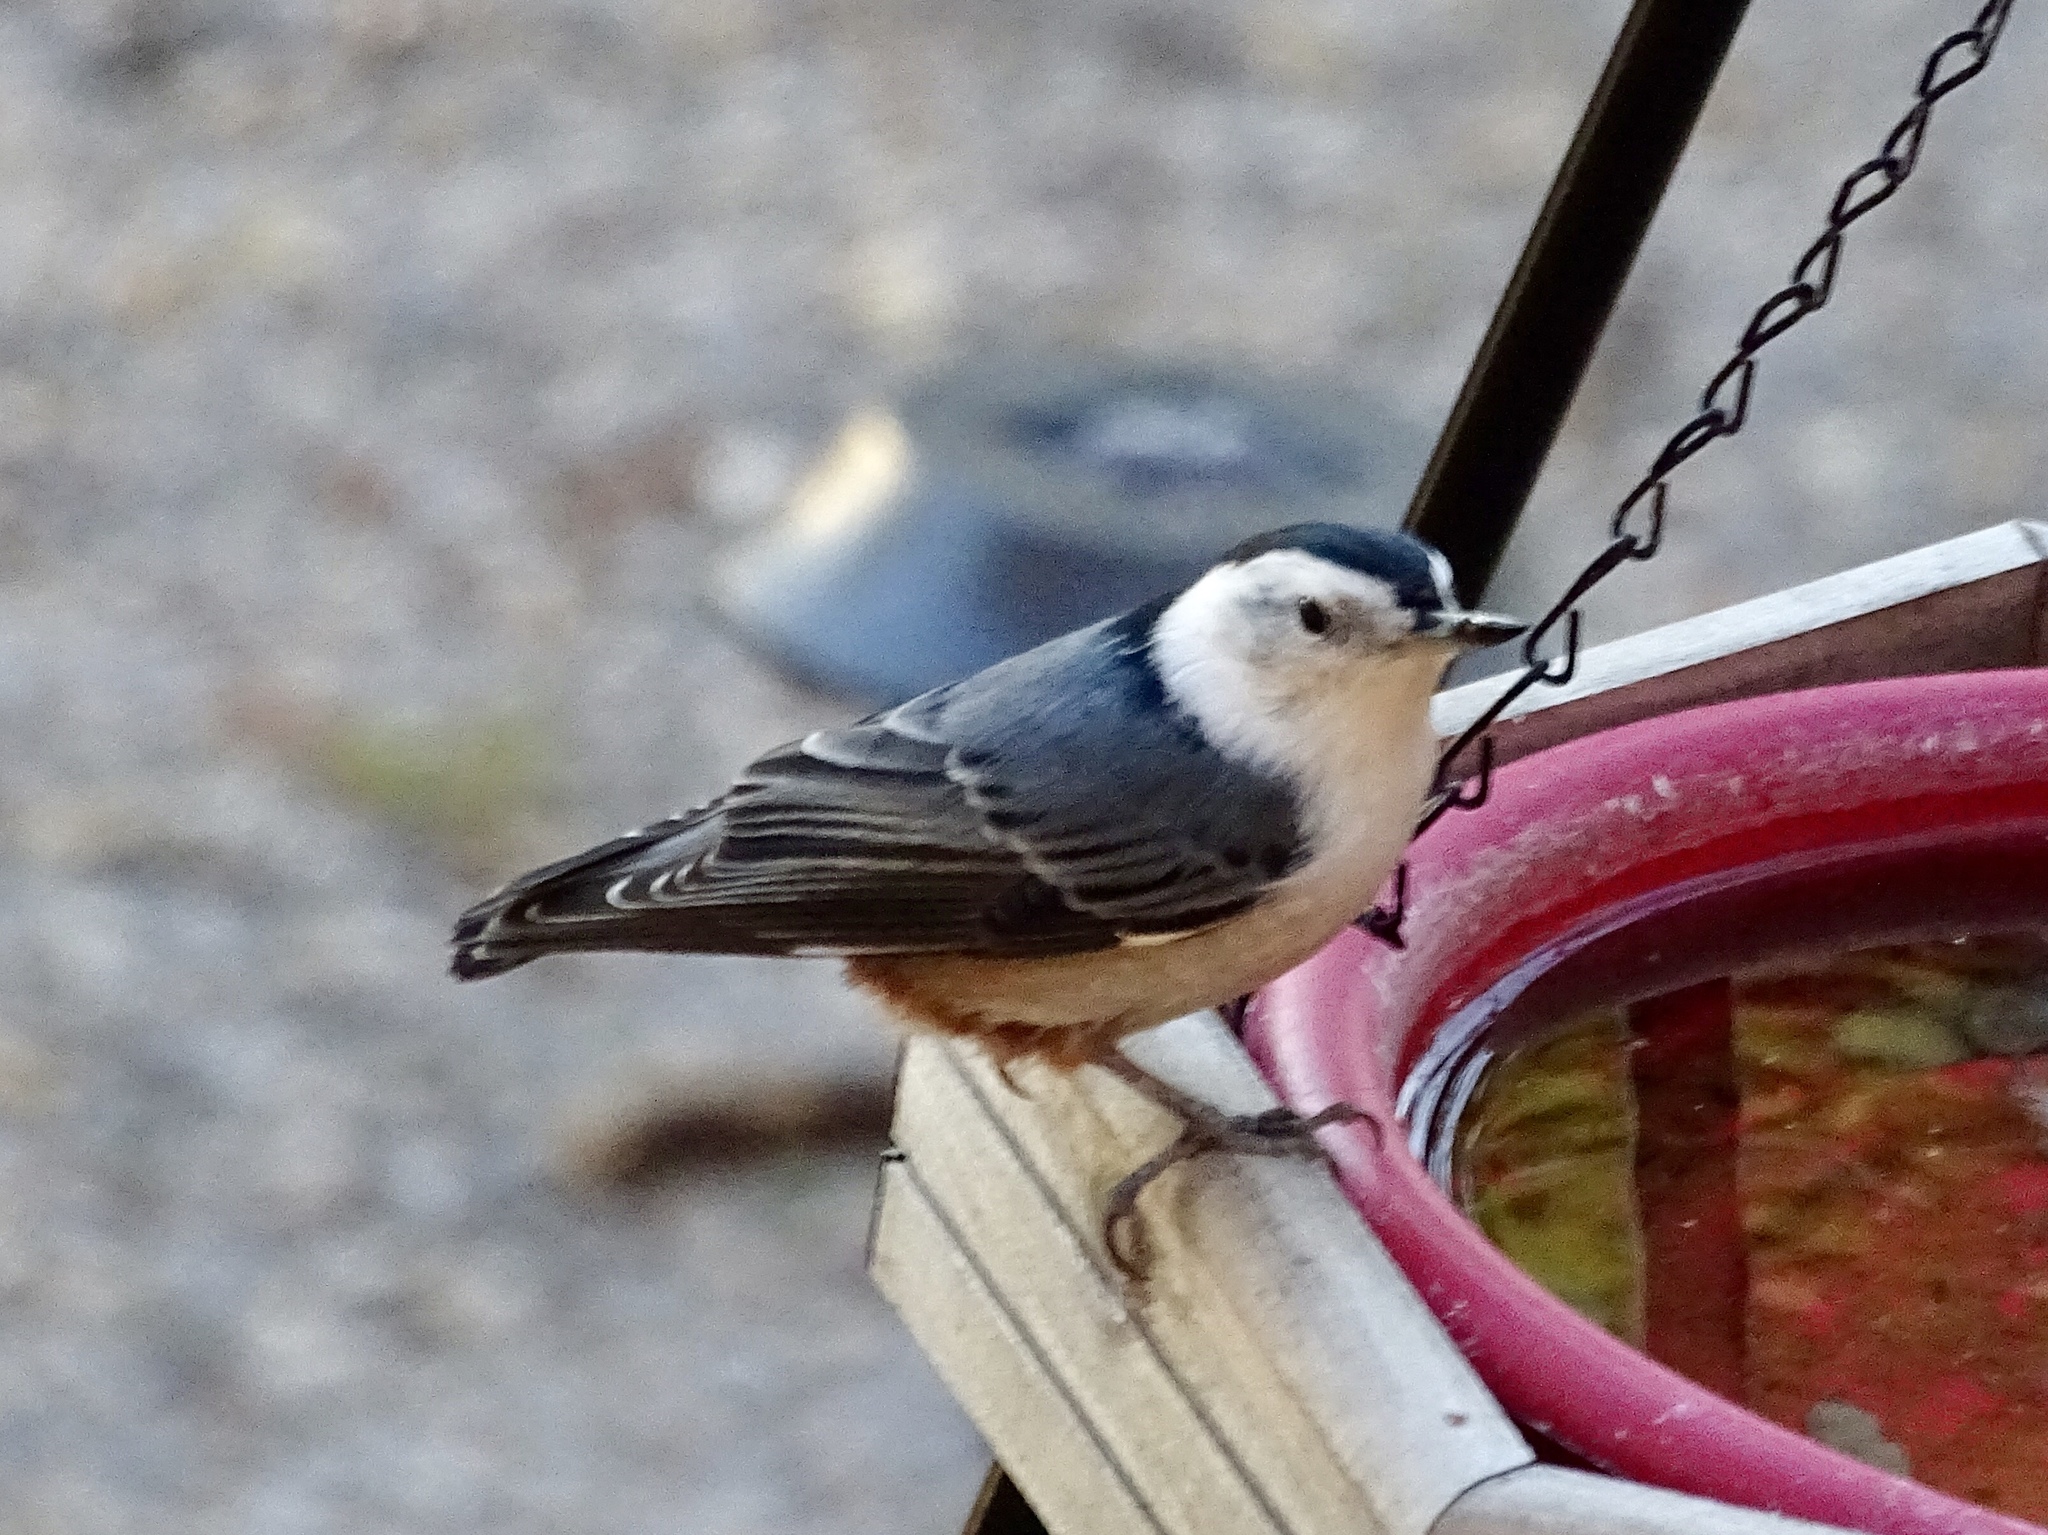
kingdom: Animalia
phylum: Chordata
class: Aves
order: Passeriformes
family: Sittidae
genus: Sitta
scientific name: Sitta carolinensis
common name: White-breasted nuthatch
